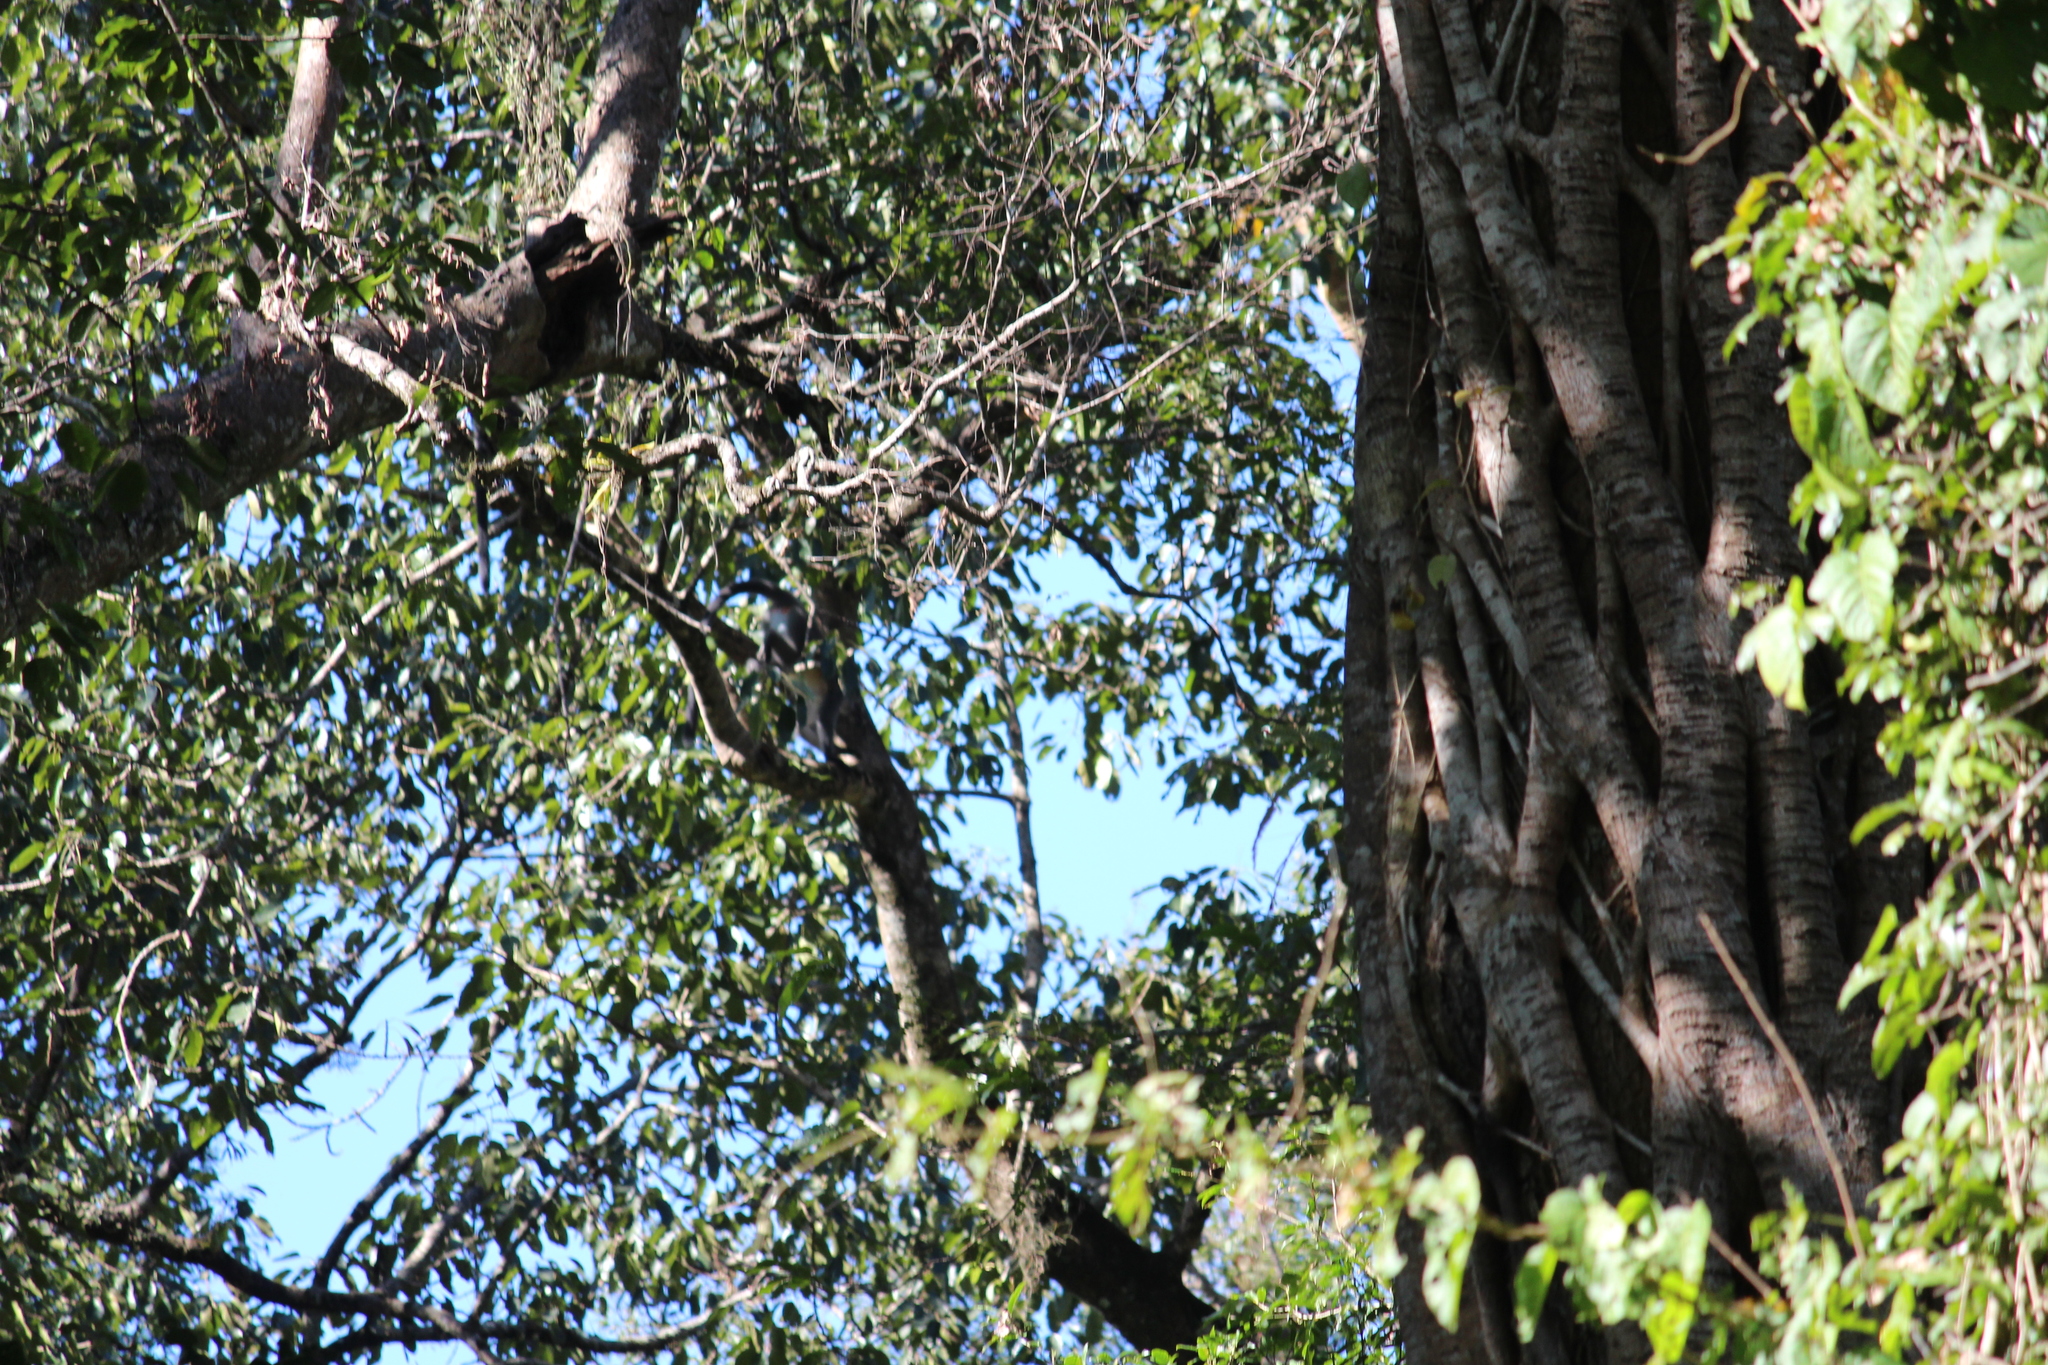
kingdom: Animalia
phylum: Chordata
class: Mammalia
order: Primates
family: Cercopithecidae
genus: Trachypithecus
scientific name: Trachypithecus pileatus
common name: Capped langur
